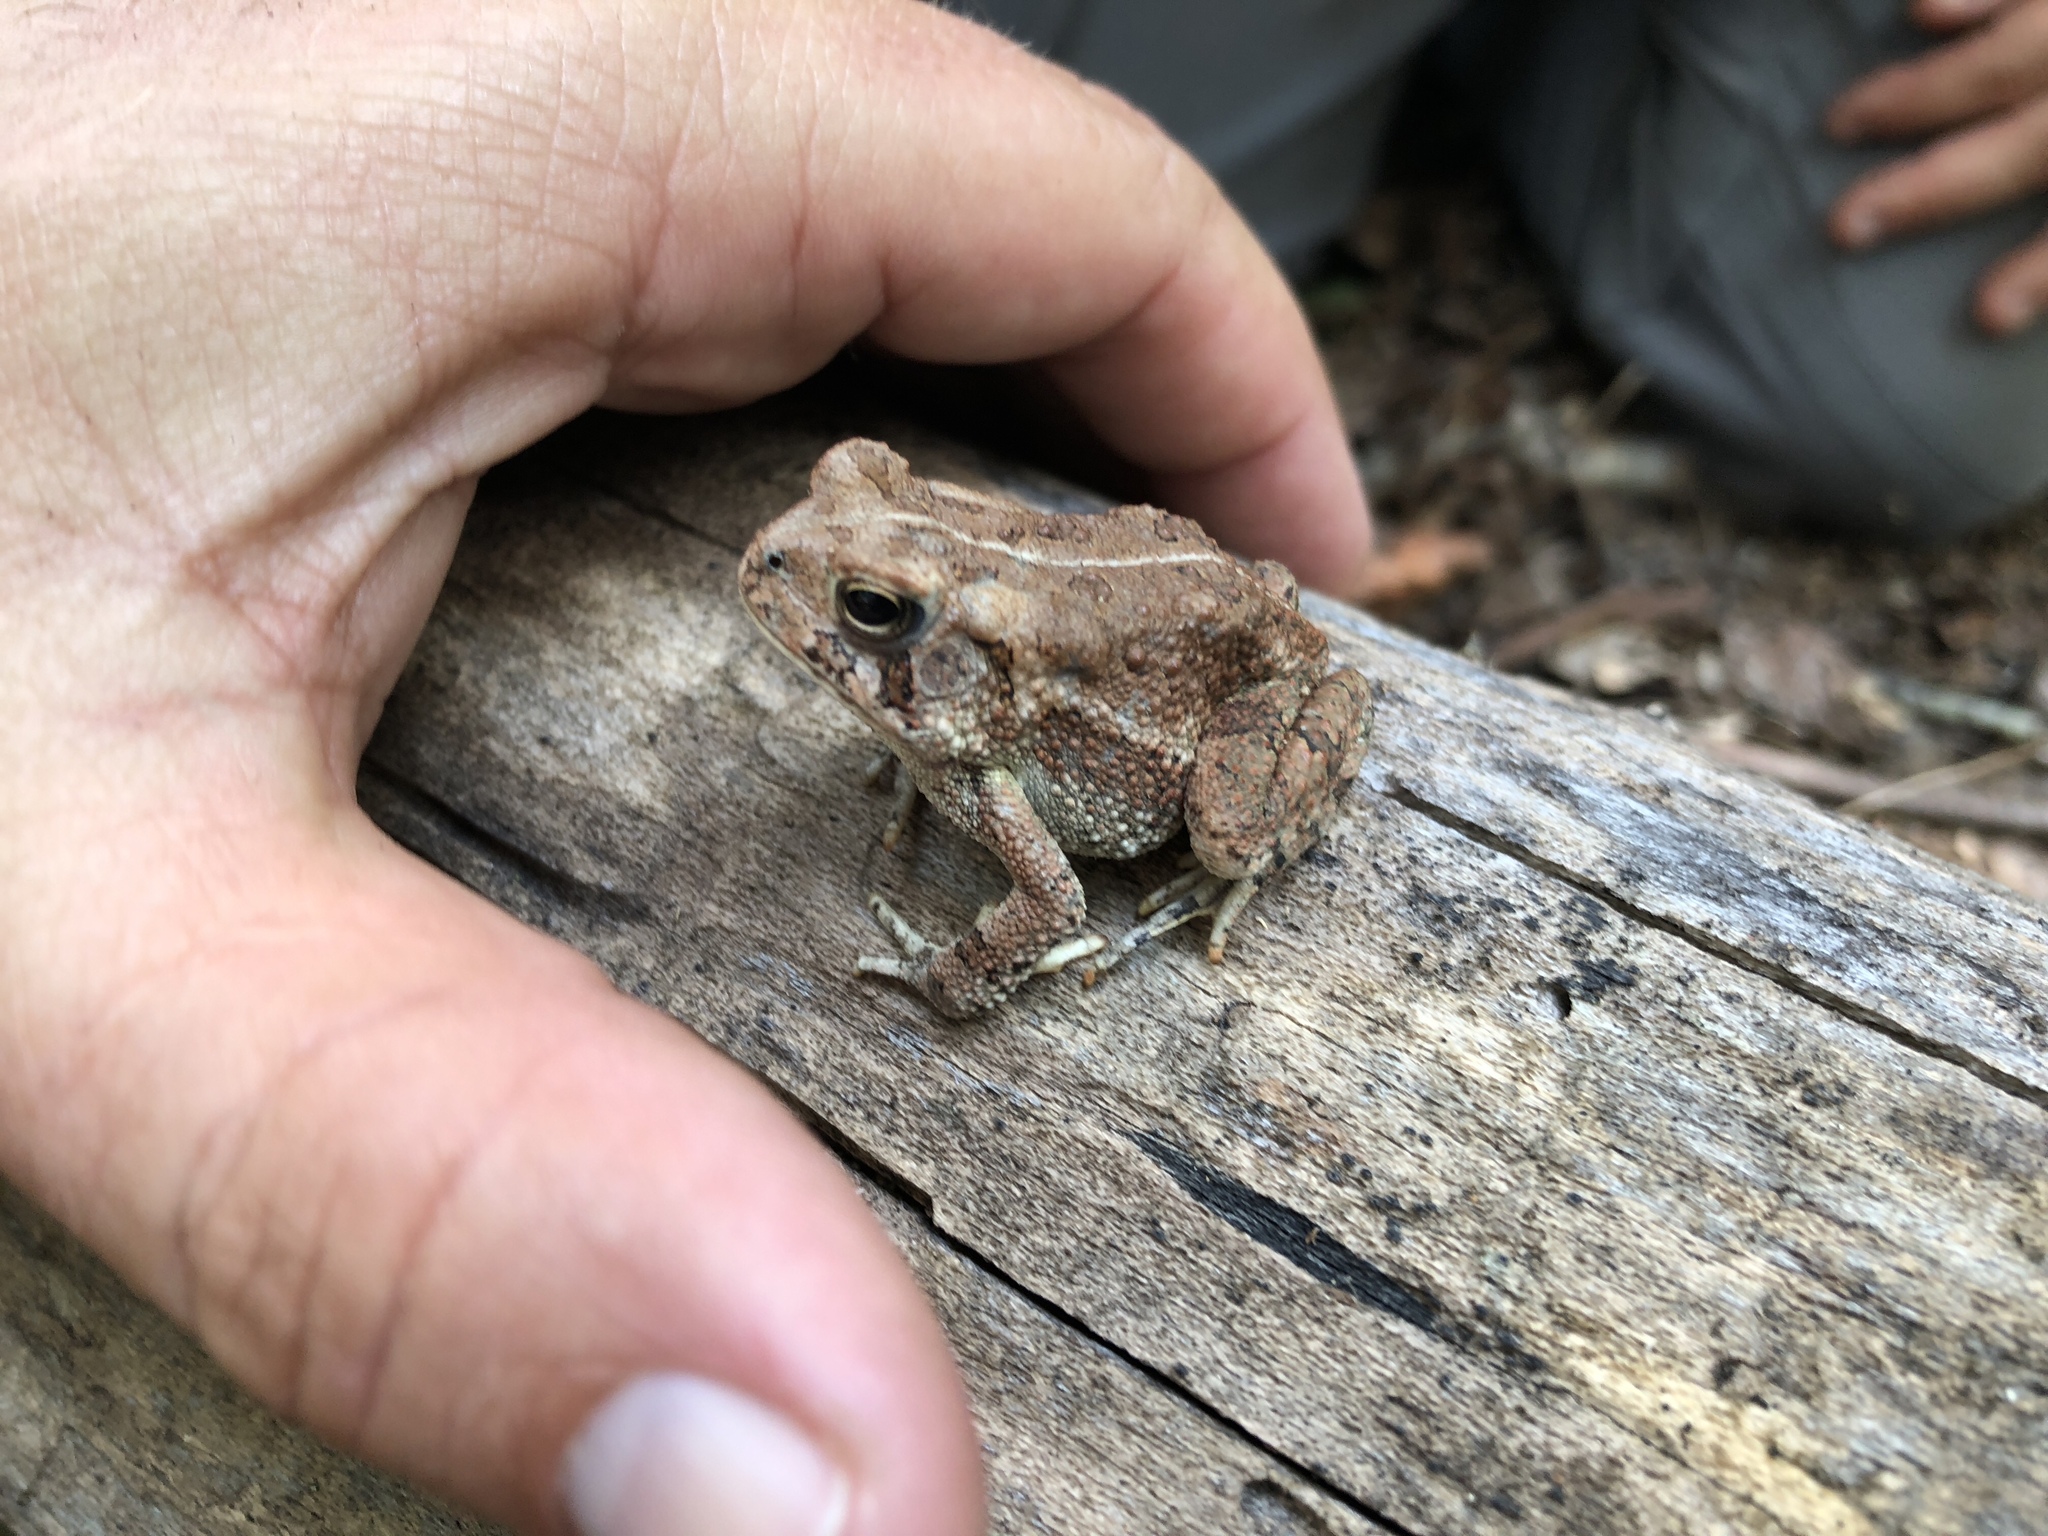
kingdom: Animalia
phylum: Chordata
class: Amphibia
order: Anura
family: Bufonidae
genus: Anaxyrus
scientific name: Anaxyrus americanus
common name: American toad
